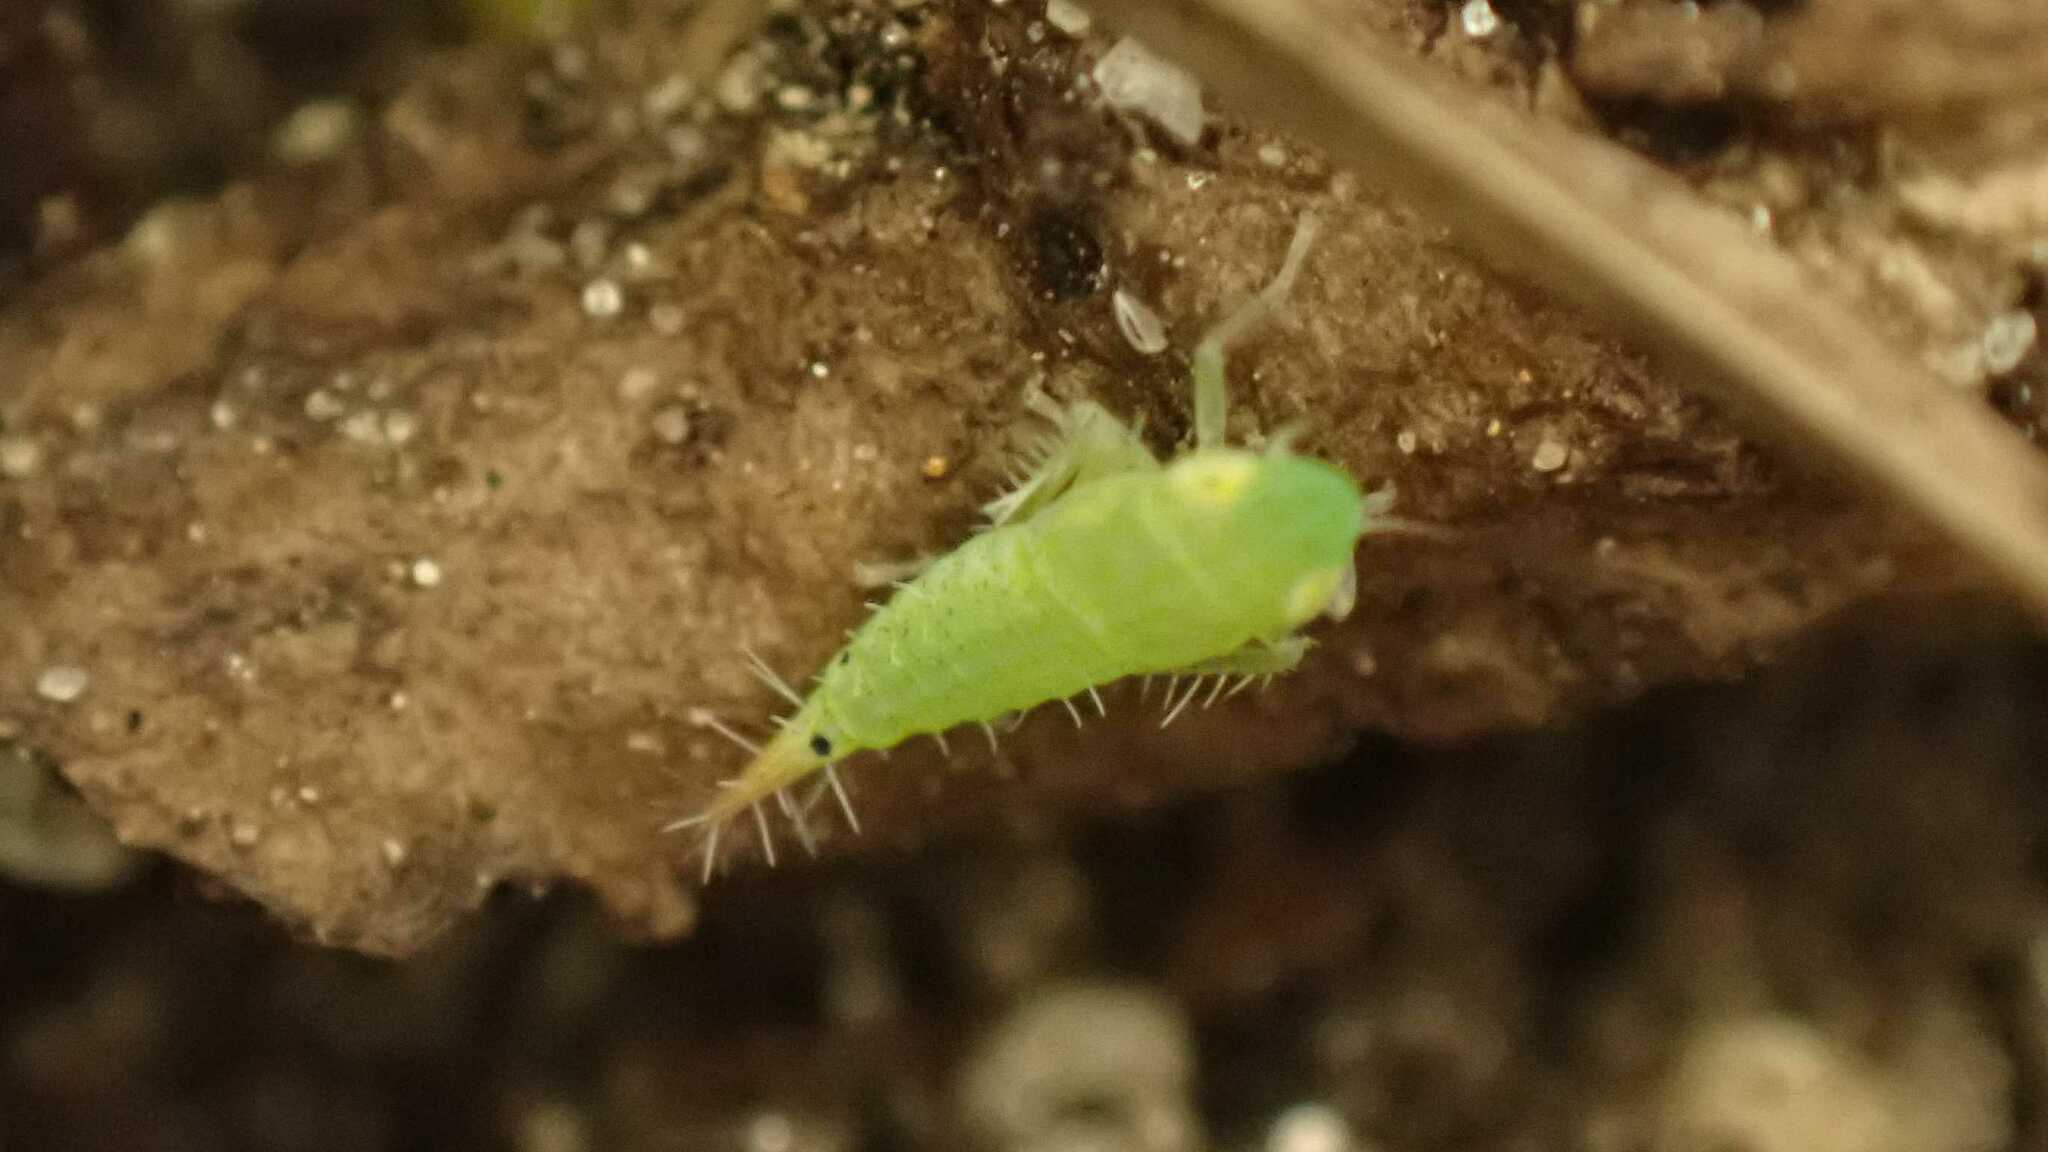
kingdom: Animalia
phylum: Arthropoda
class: Insecta
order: Hemiptera
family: Cicadellidae
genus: Fieberiella
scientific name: Fieberiella
